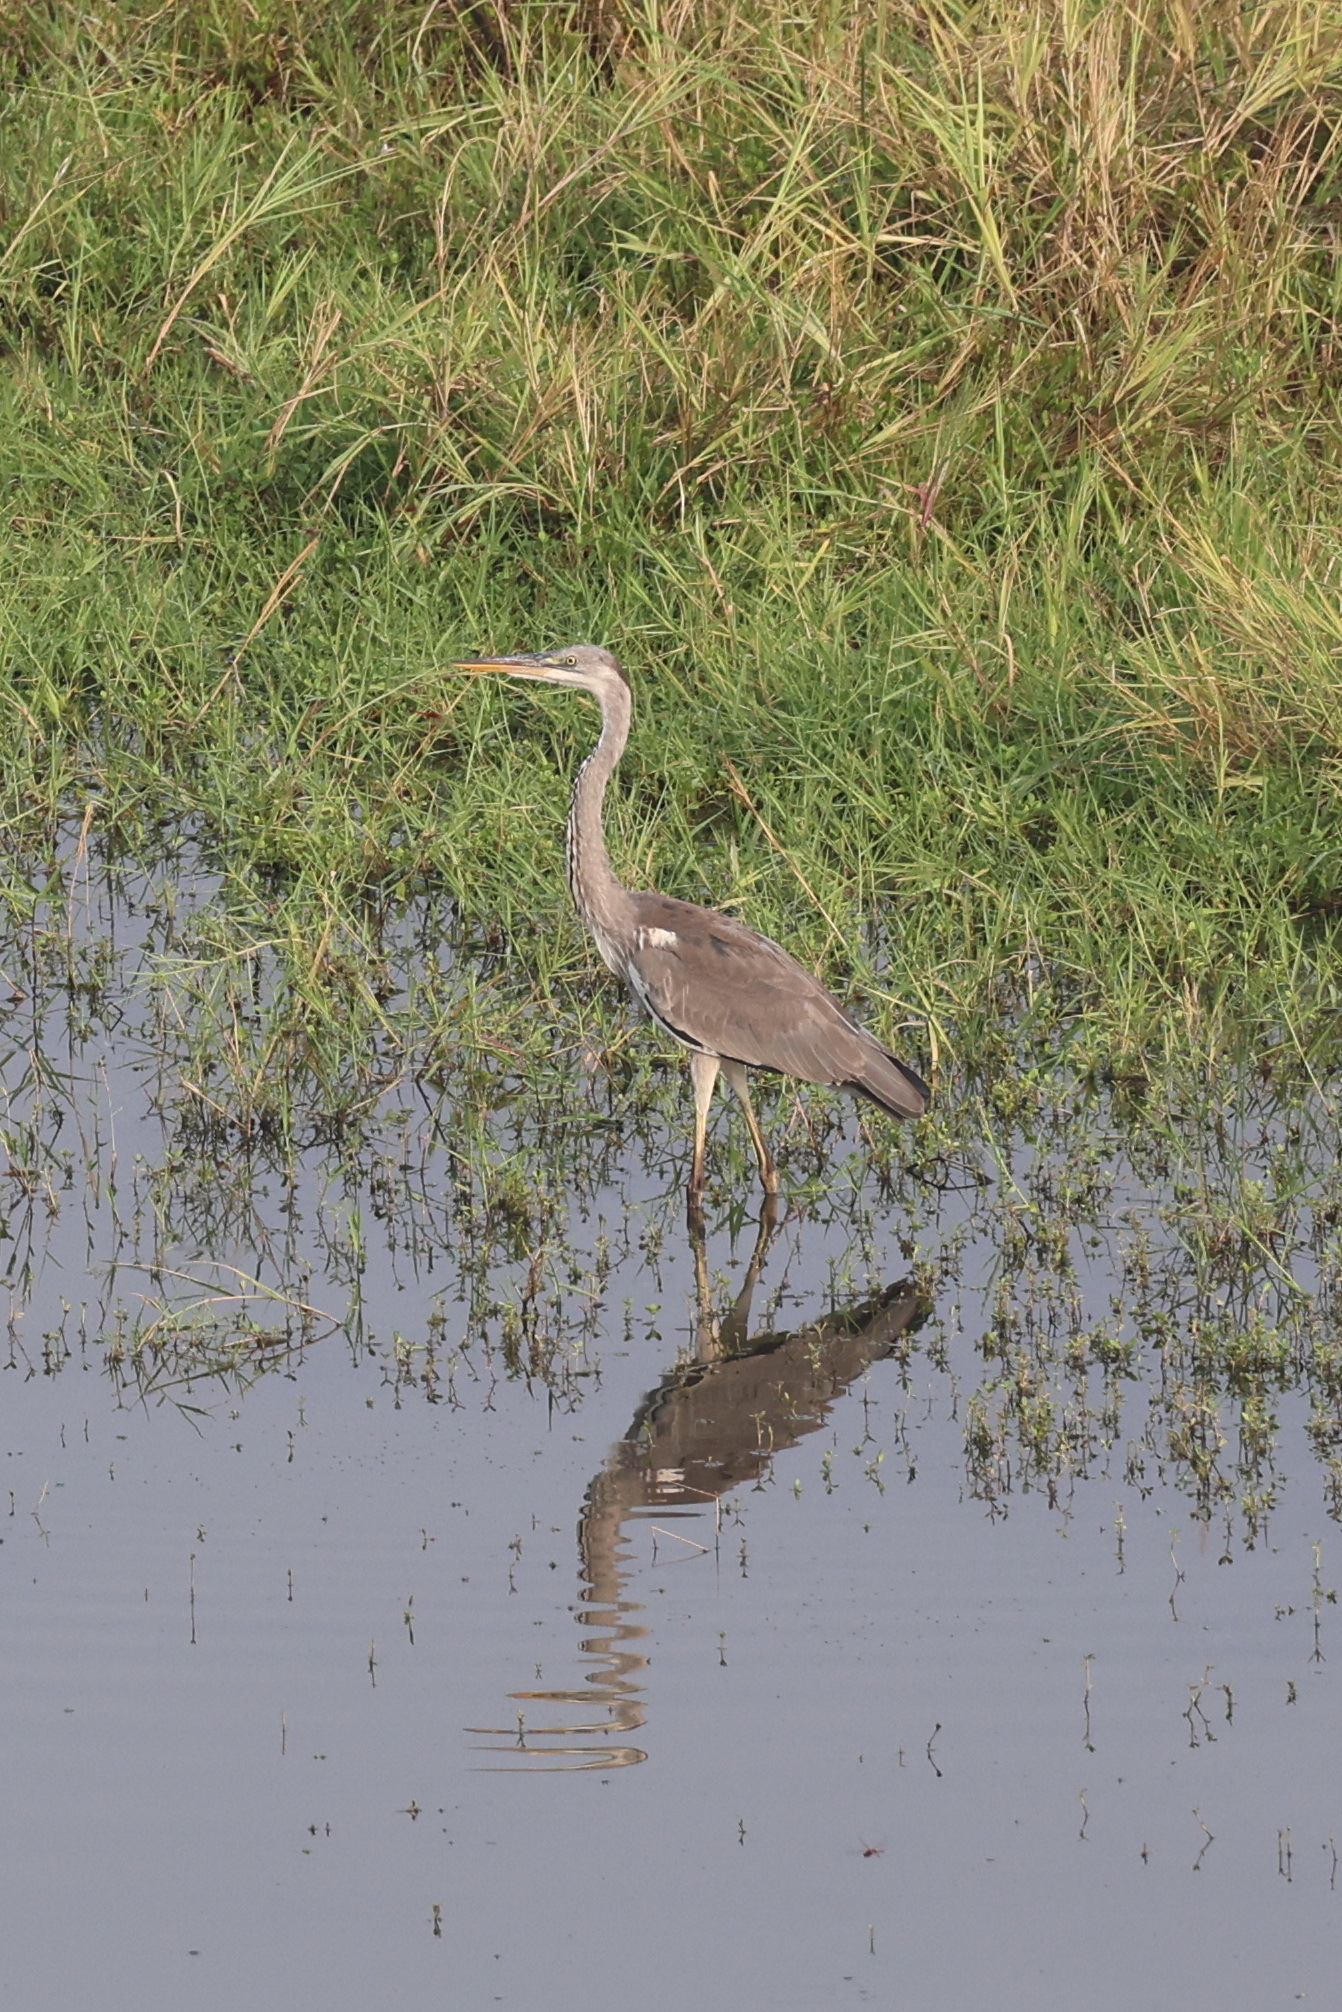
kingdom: Animalia
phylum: Chordata
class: Aves
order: Pelecaniformes
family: Ardeidae
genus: Ardea
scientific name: Ardea cinerea
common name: Grey heron
